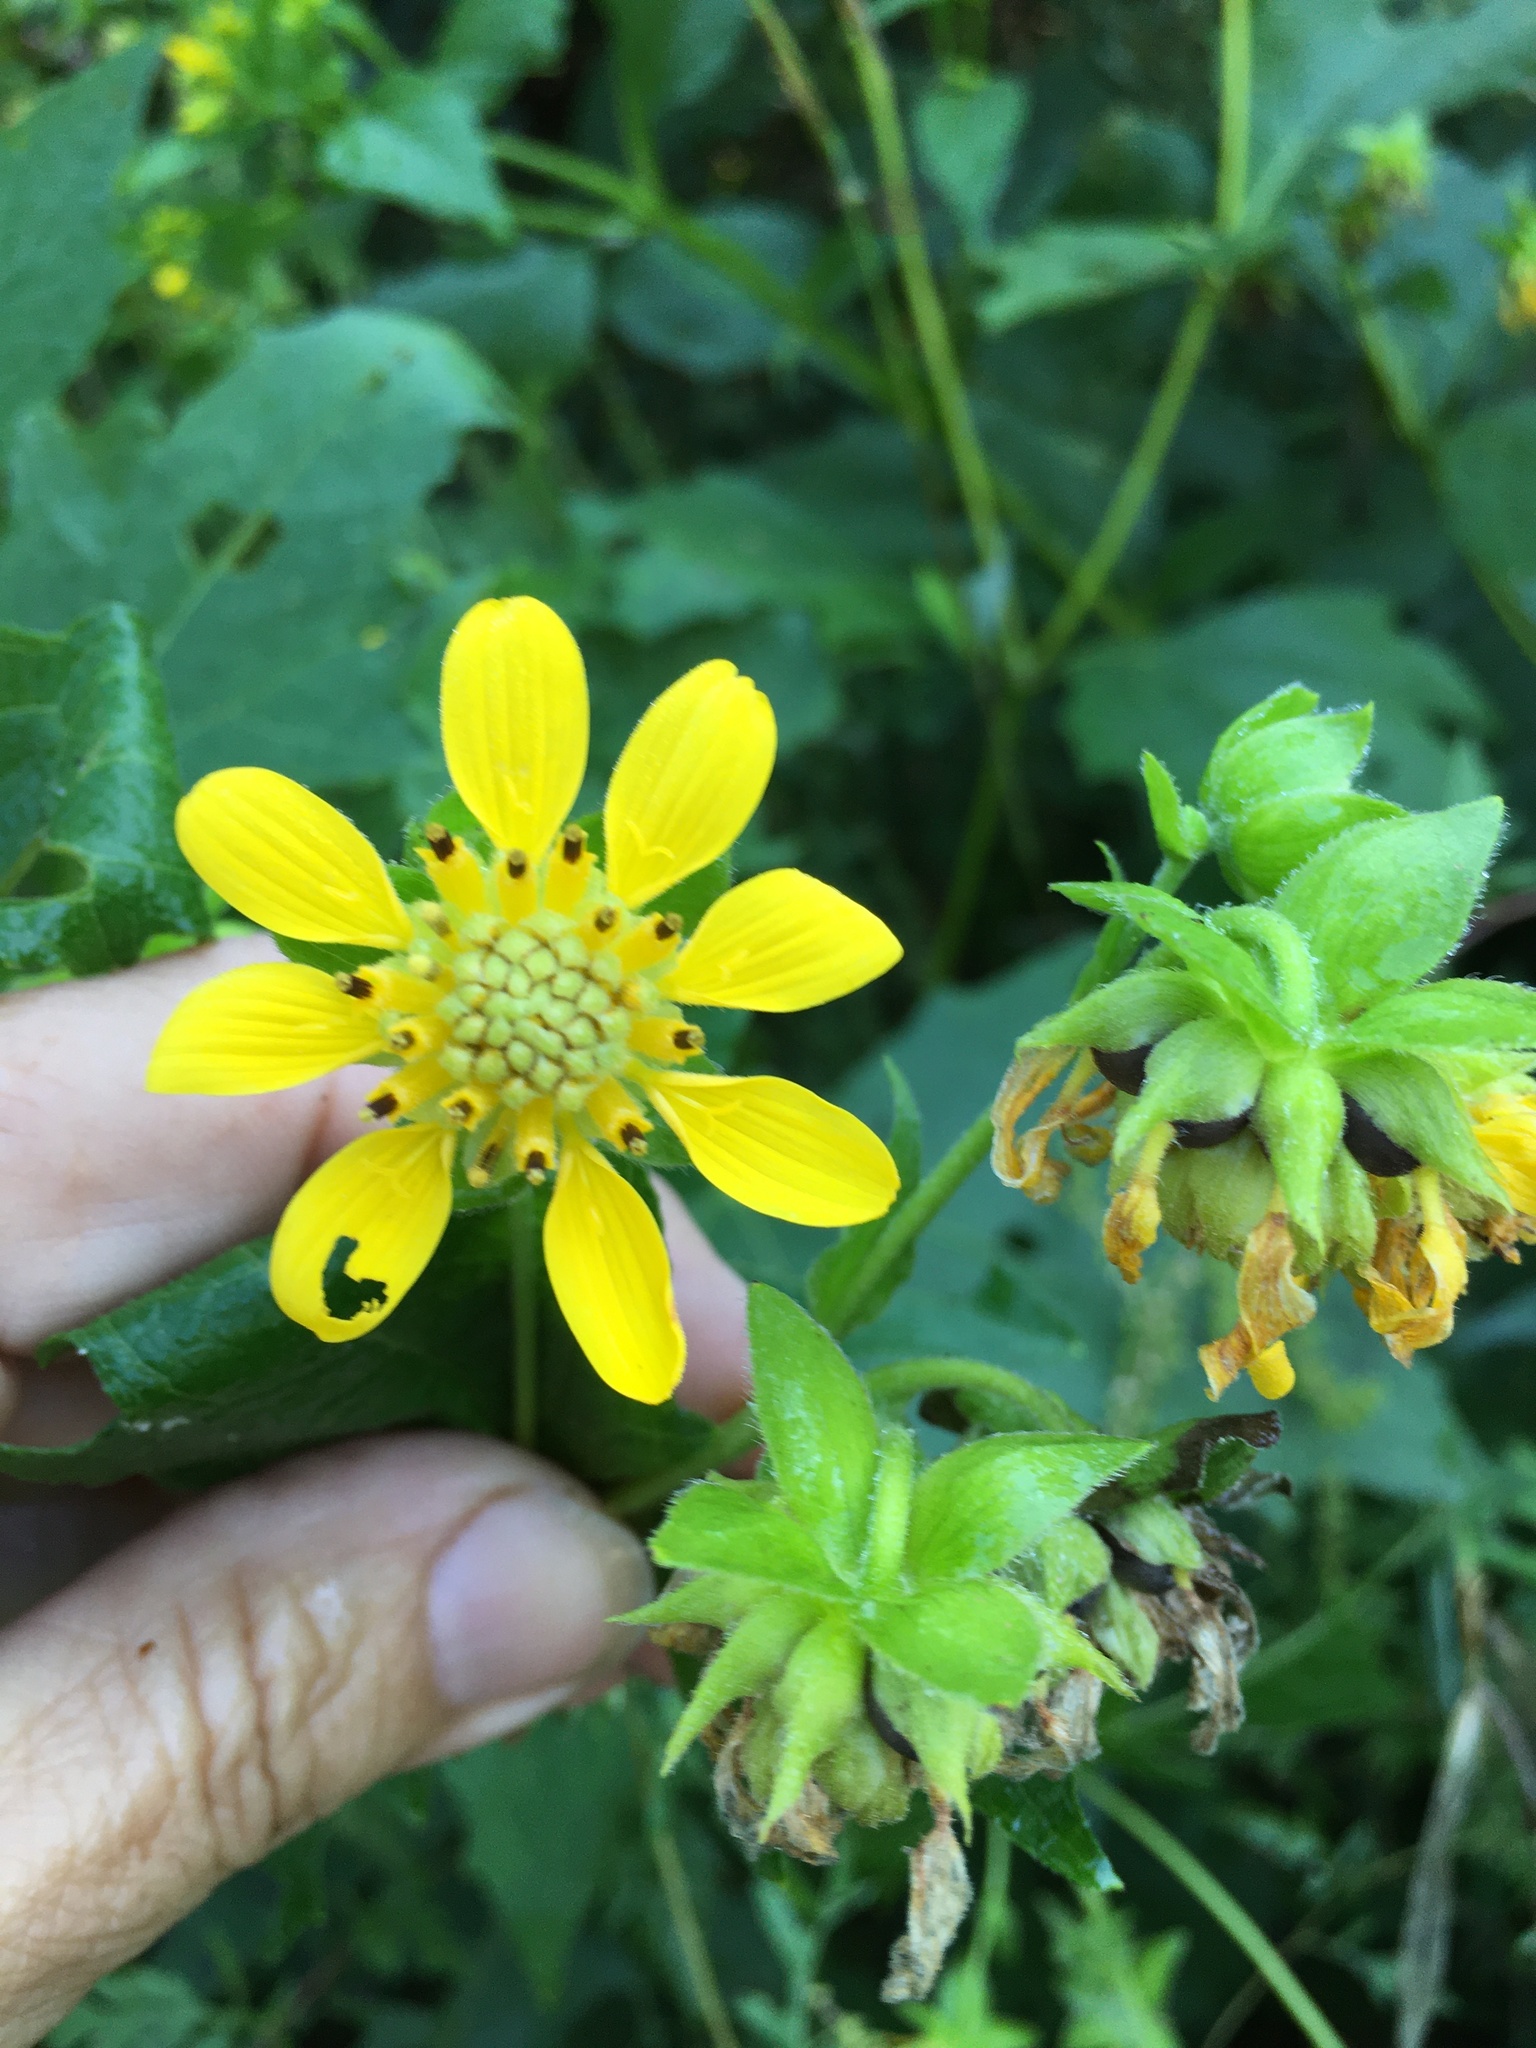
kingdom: Plantae
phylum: Tracheophyta
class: Magnoliopsida
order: Asterales
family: Asteraceae
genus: Smallanthus
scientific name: Smallanthus uvedalia
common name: Bear's-foot
